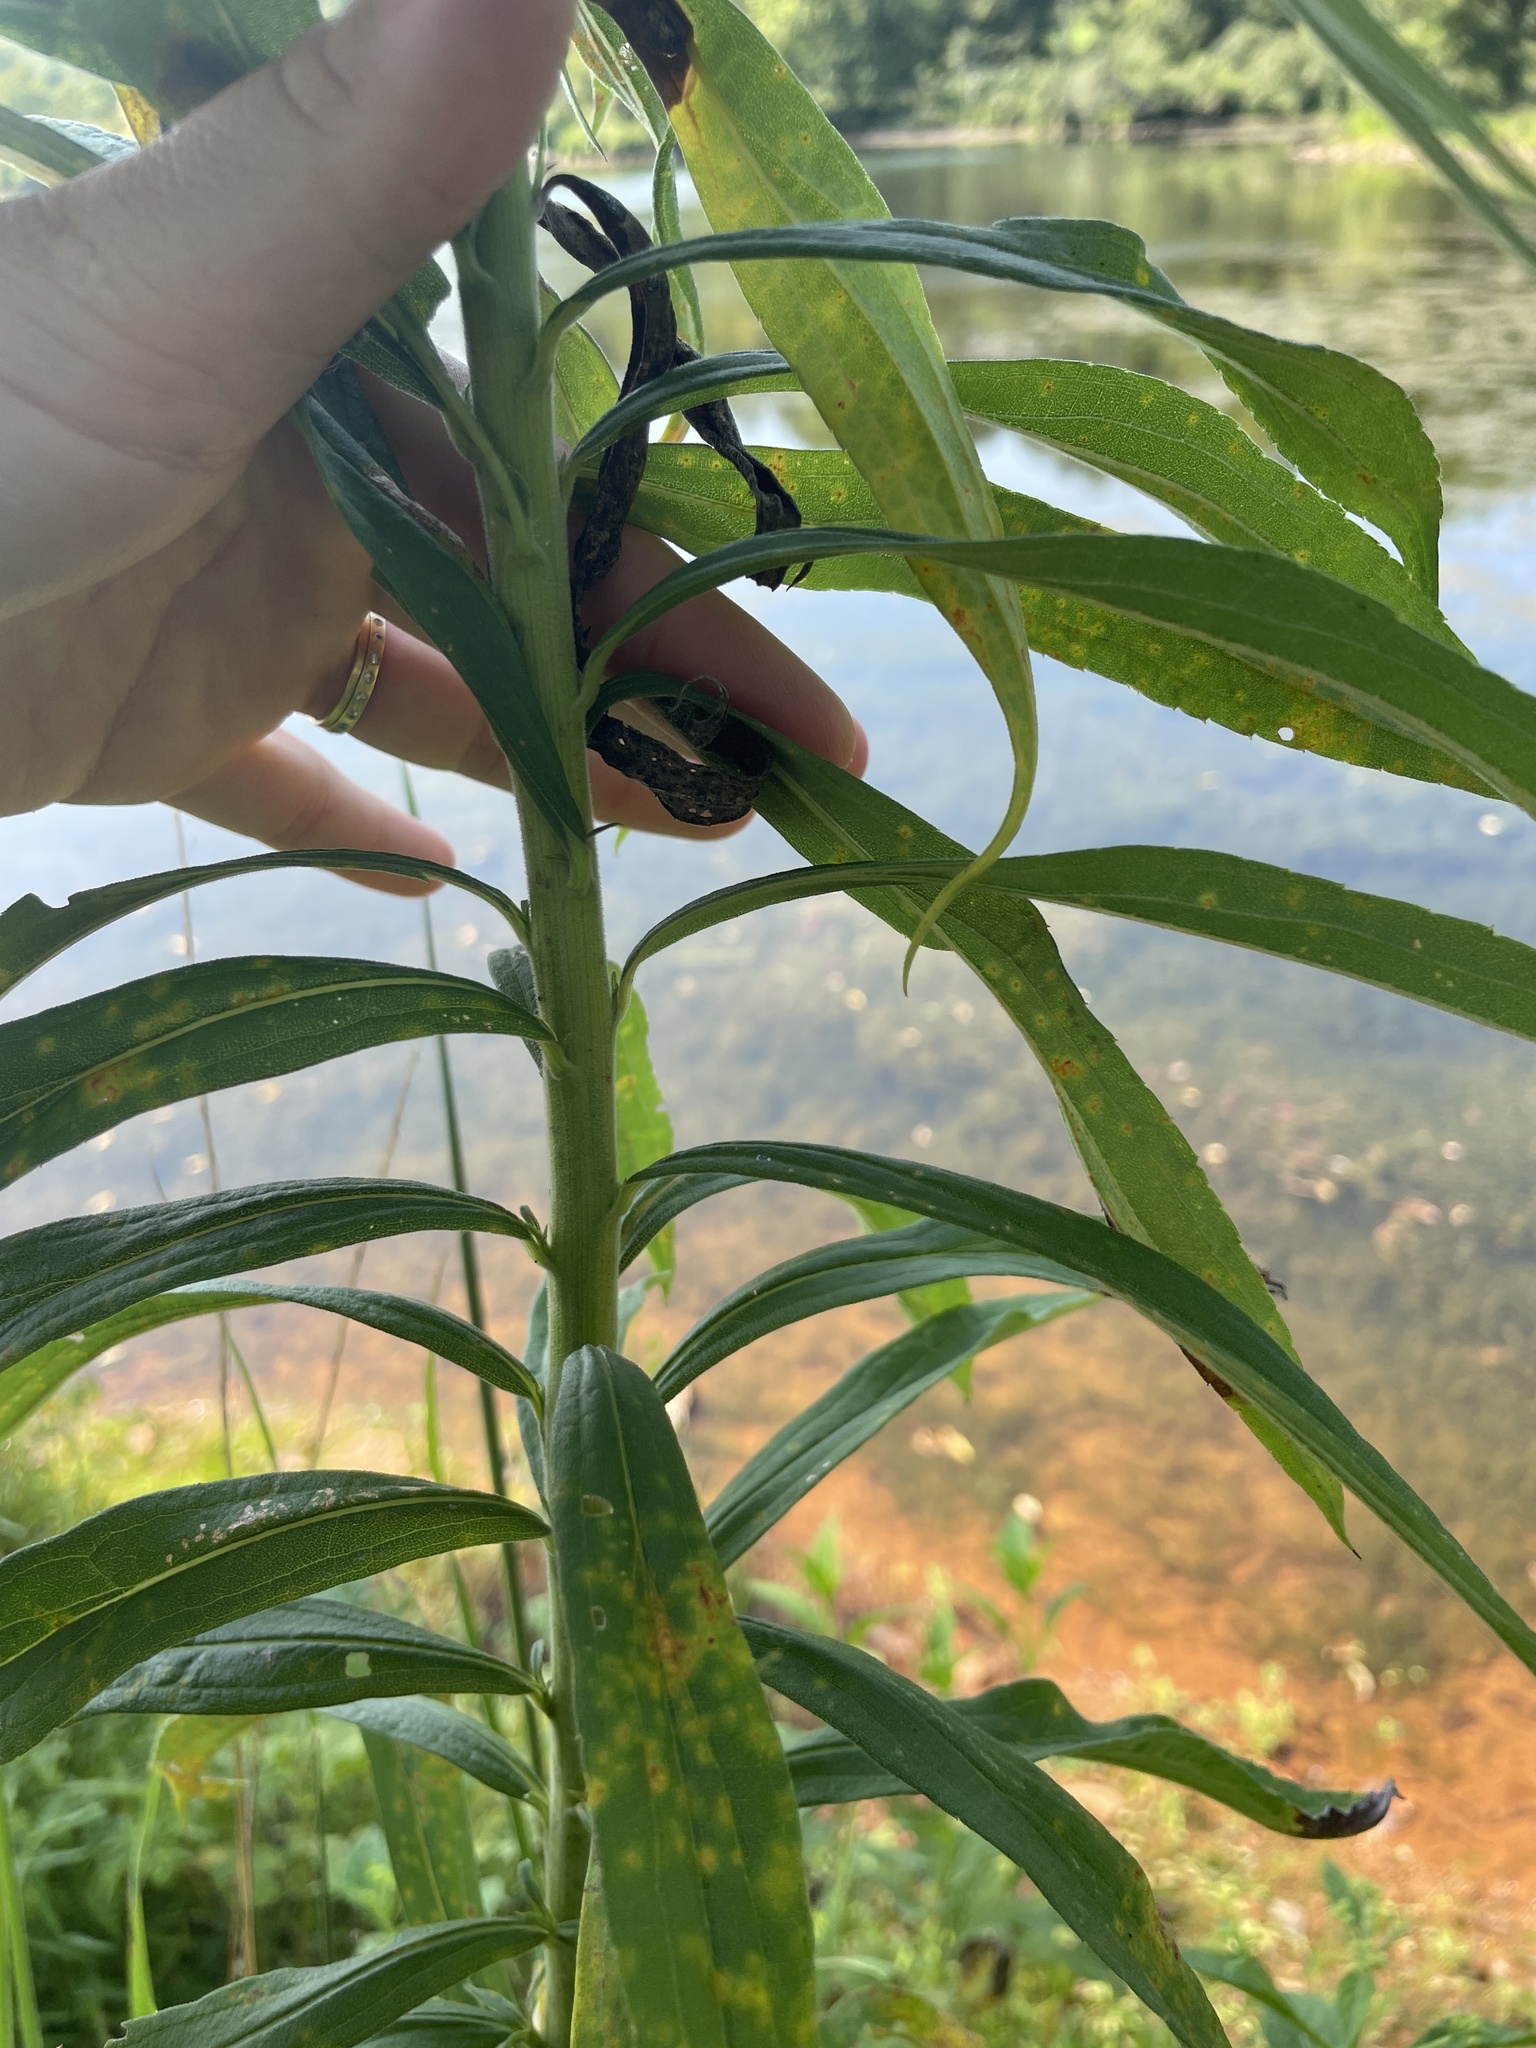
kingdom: Plantae
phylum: Tracheophyta
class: Magnoliopsida
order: Asterales
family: Asteraceae
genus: Solidago
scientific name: Solidago altissima
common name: Late goldenrod
